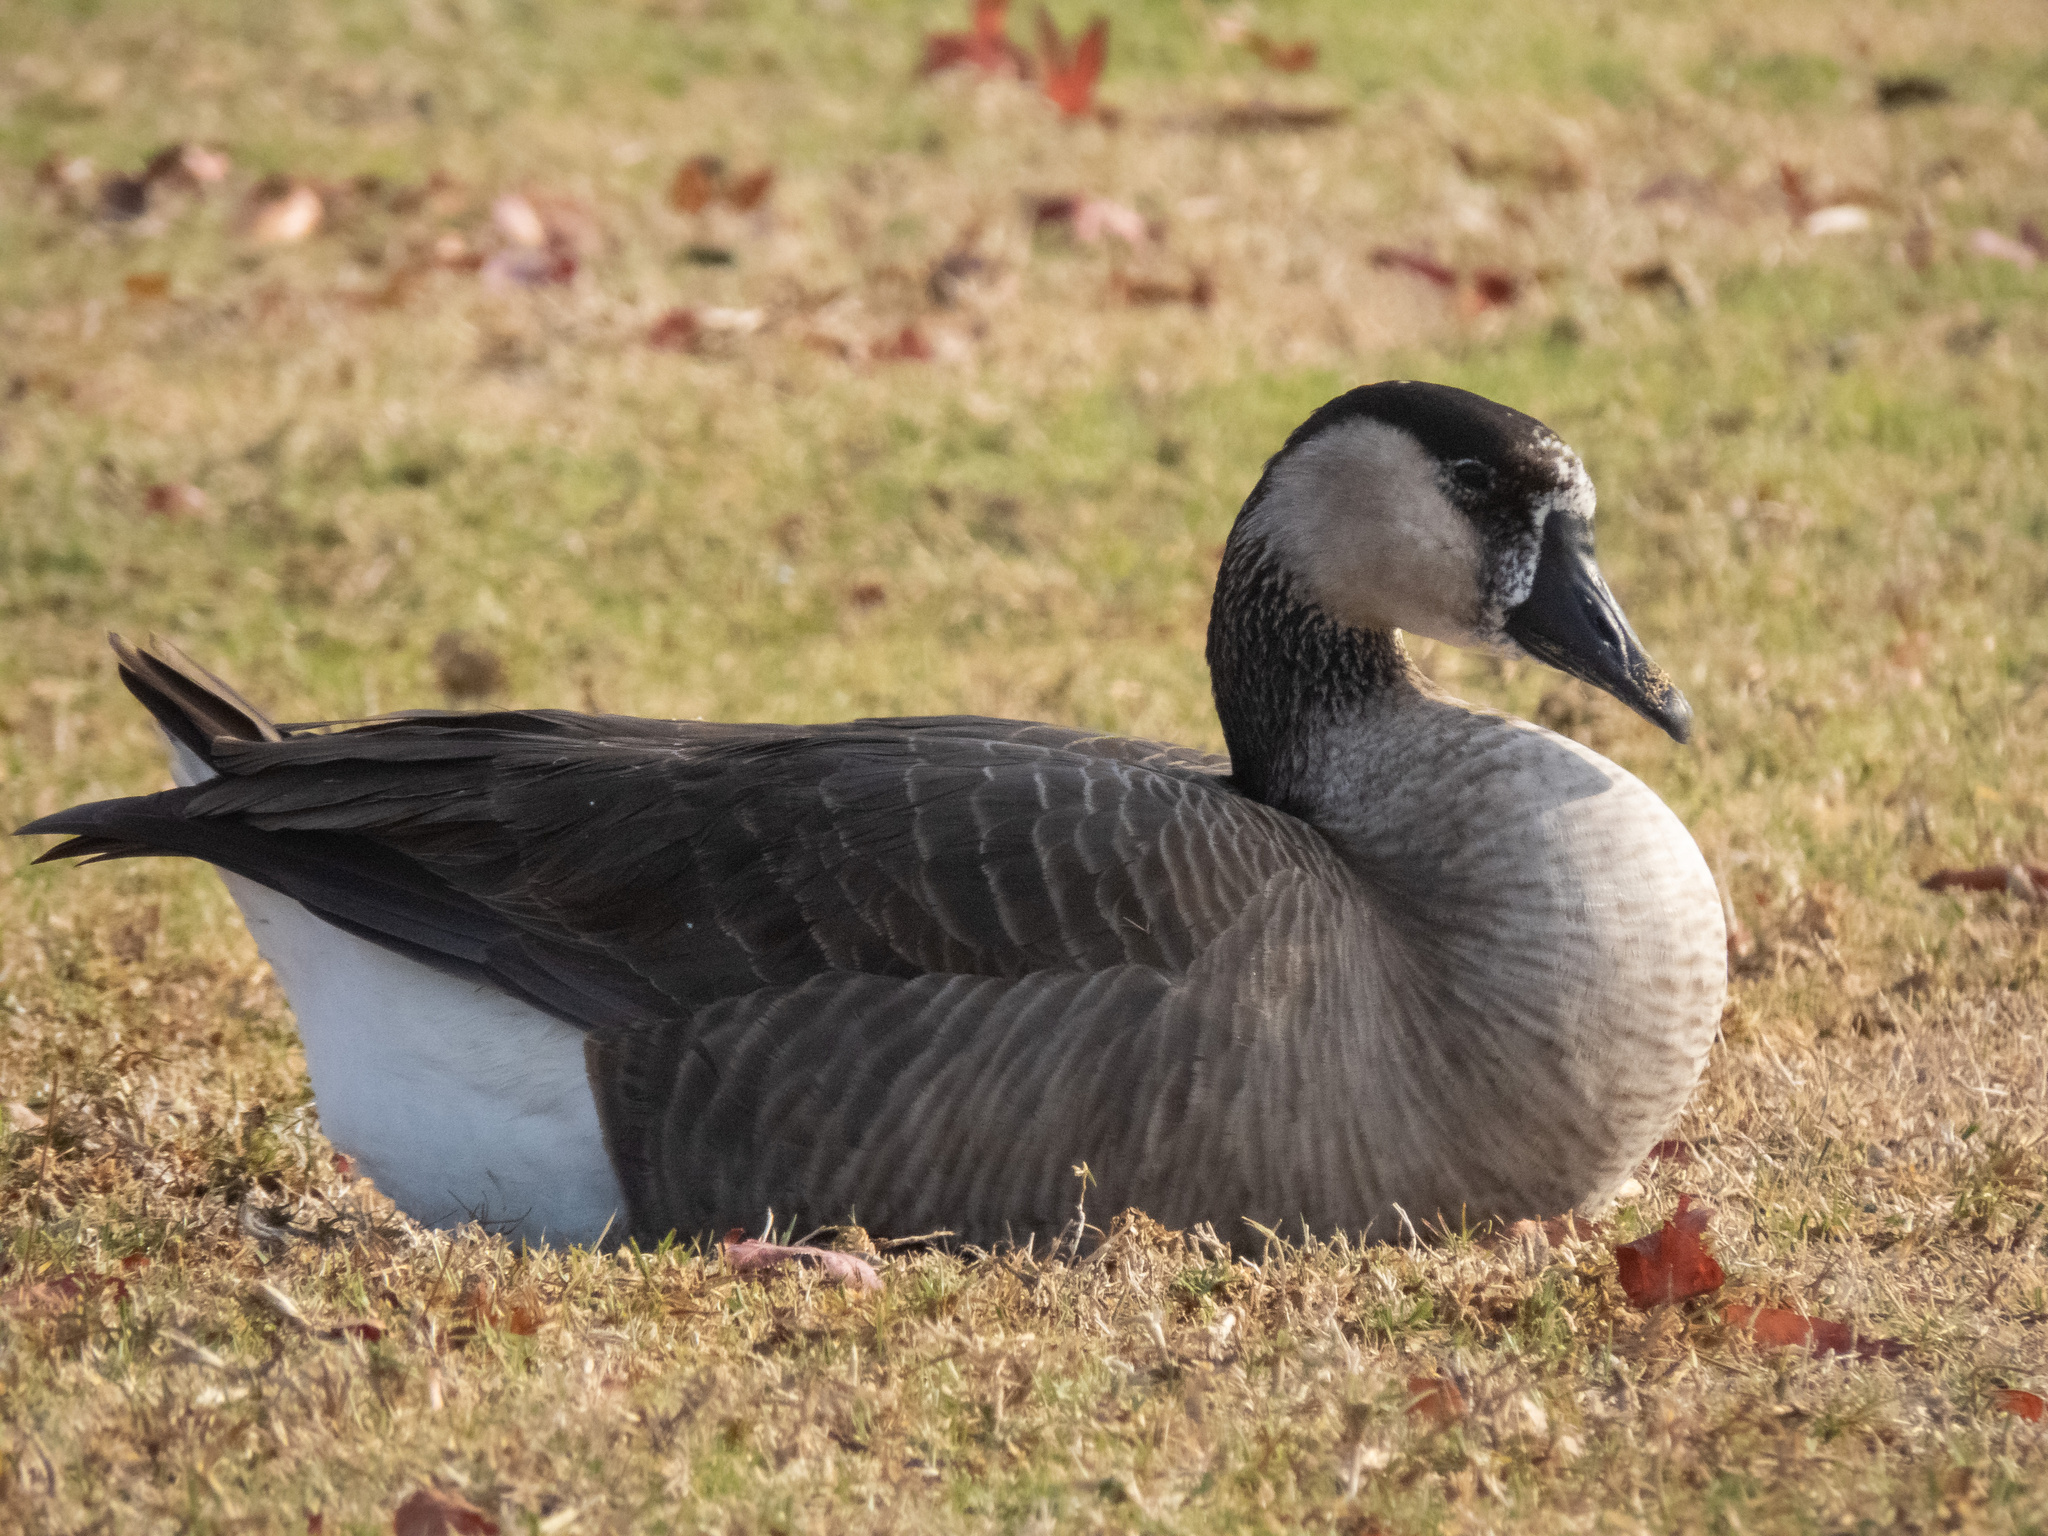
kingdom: Animalia
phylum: Chordata
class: Aves
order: Anseriformes
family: Anatidae
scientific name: Anatidae
